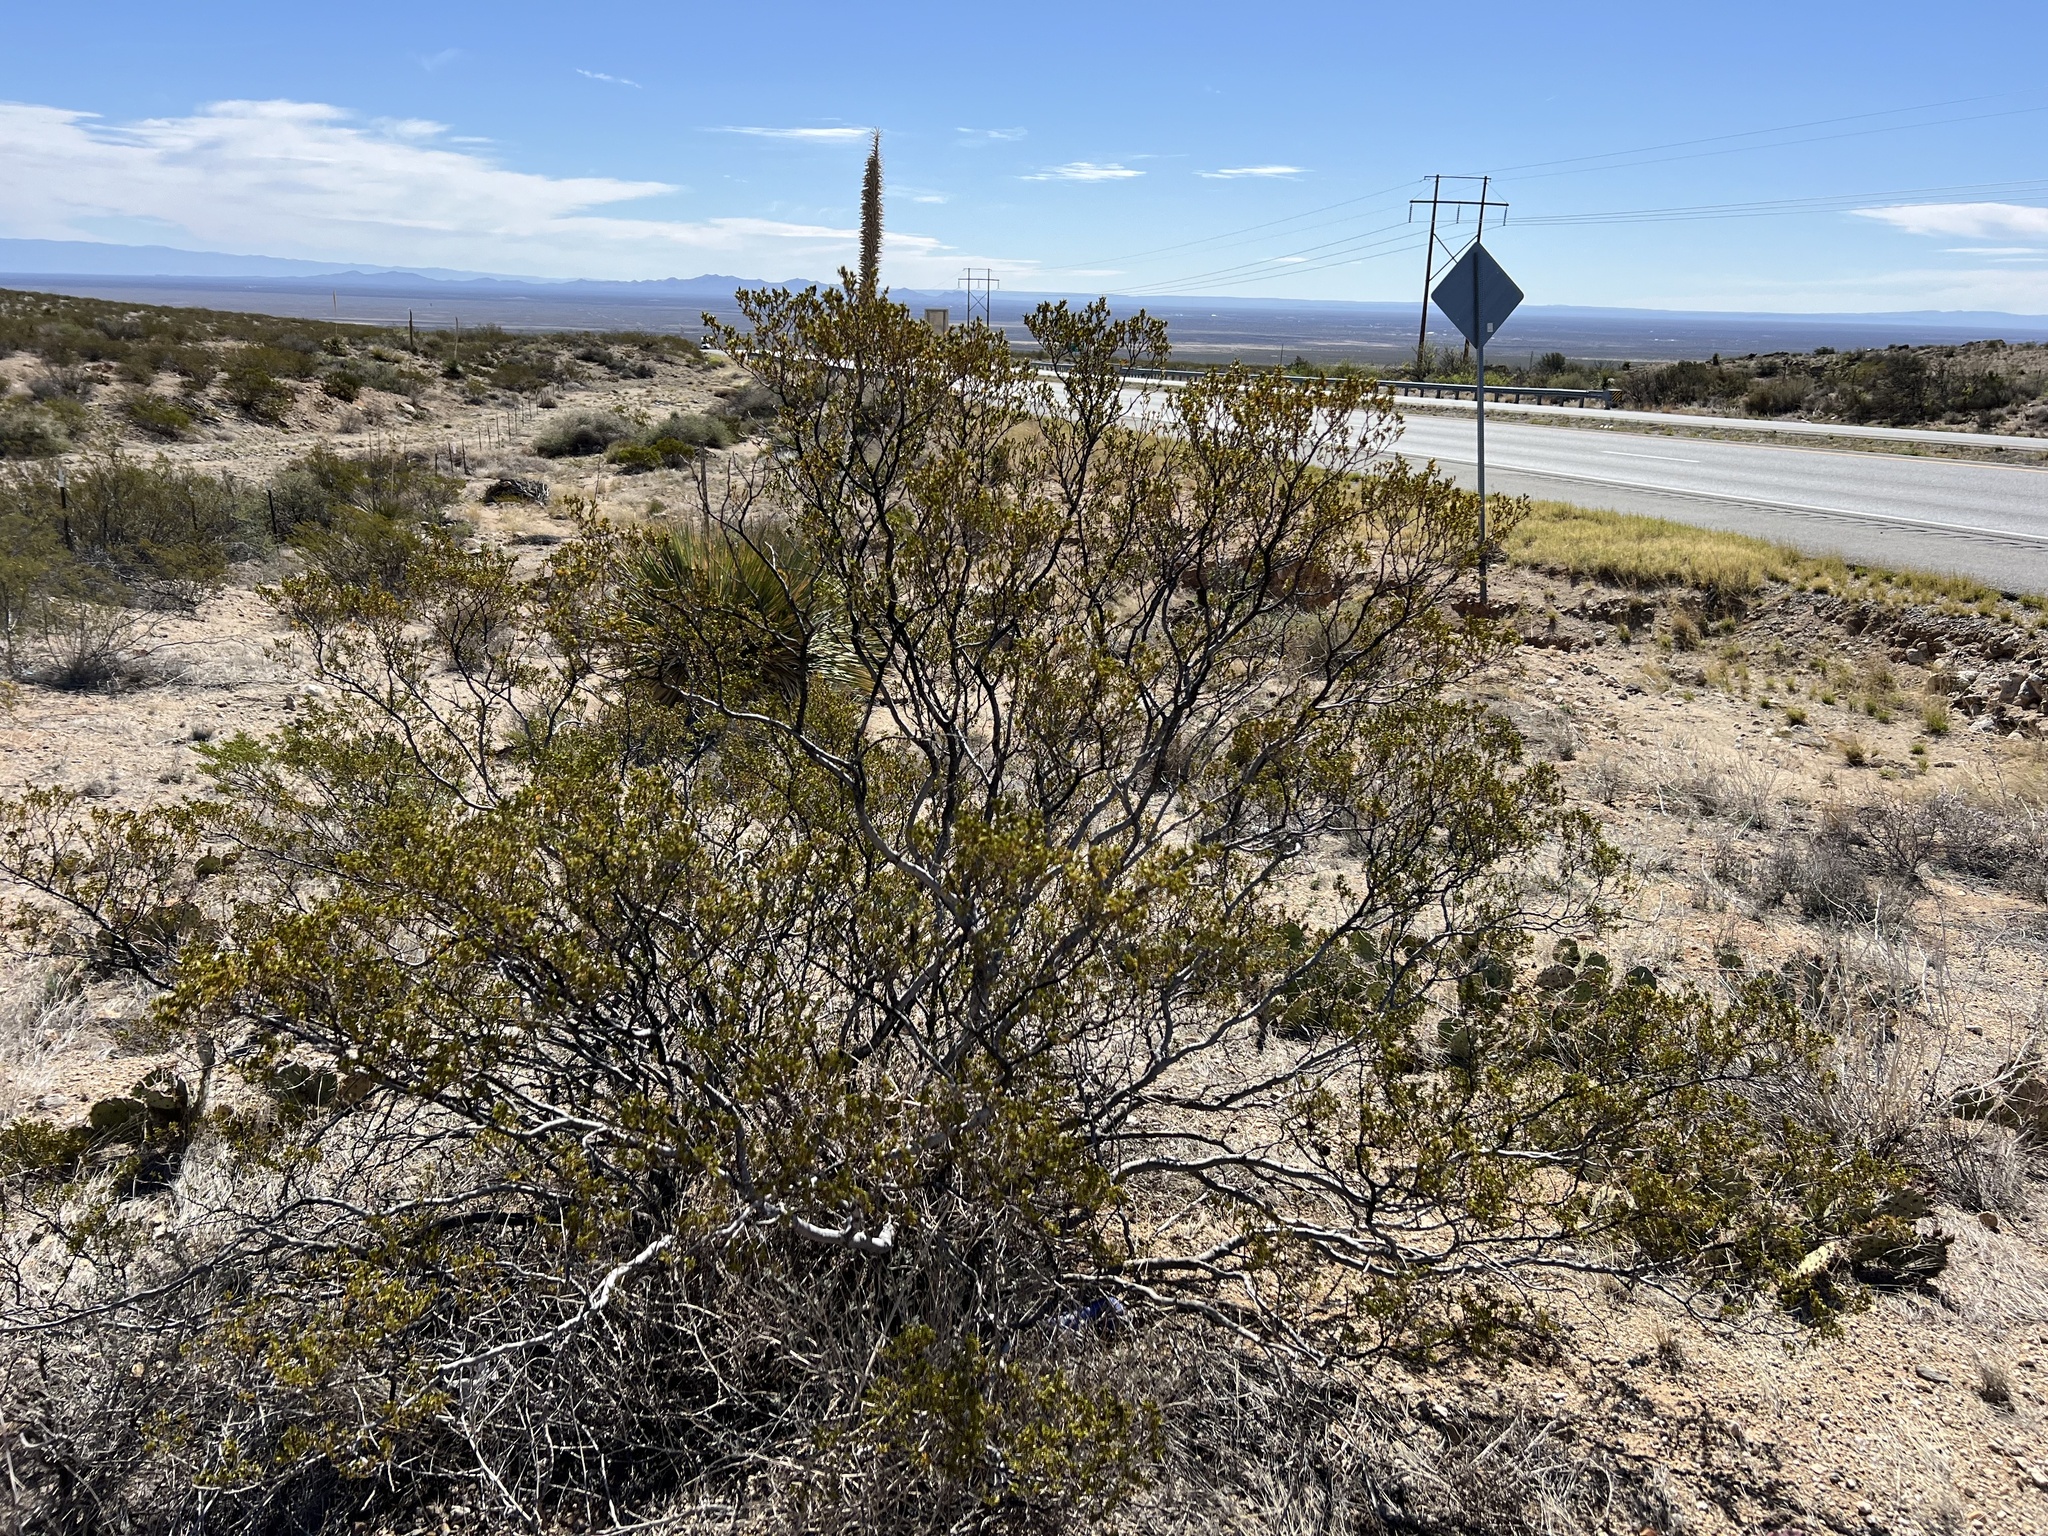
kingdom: Plantae
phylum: Tracheophyta
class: Magnoliopsida
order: Zygophyllales
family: Zygophyllaceae
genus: Larrea
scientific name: Larrea tridentata
